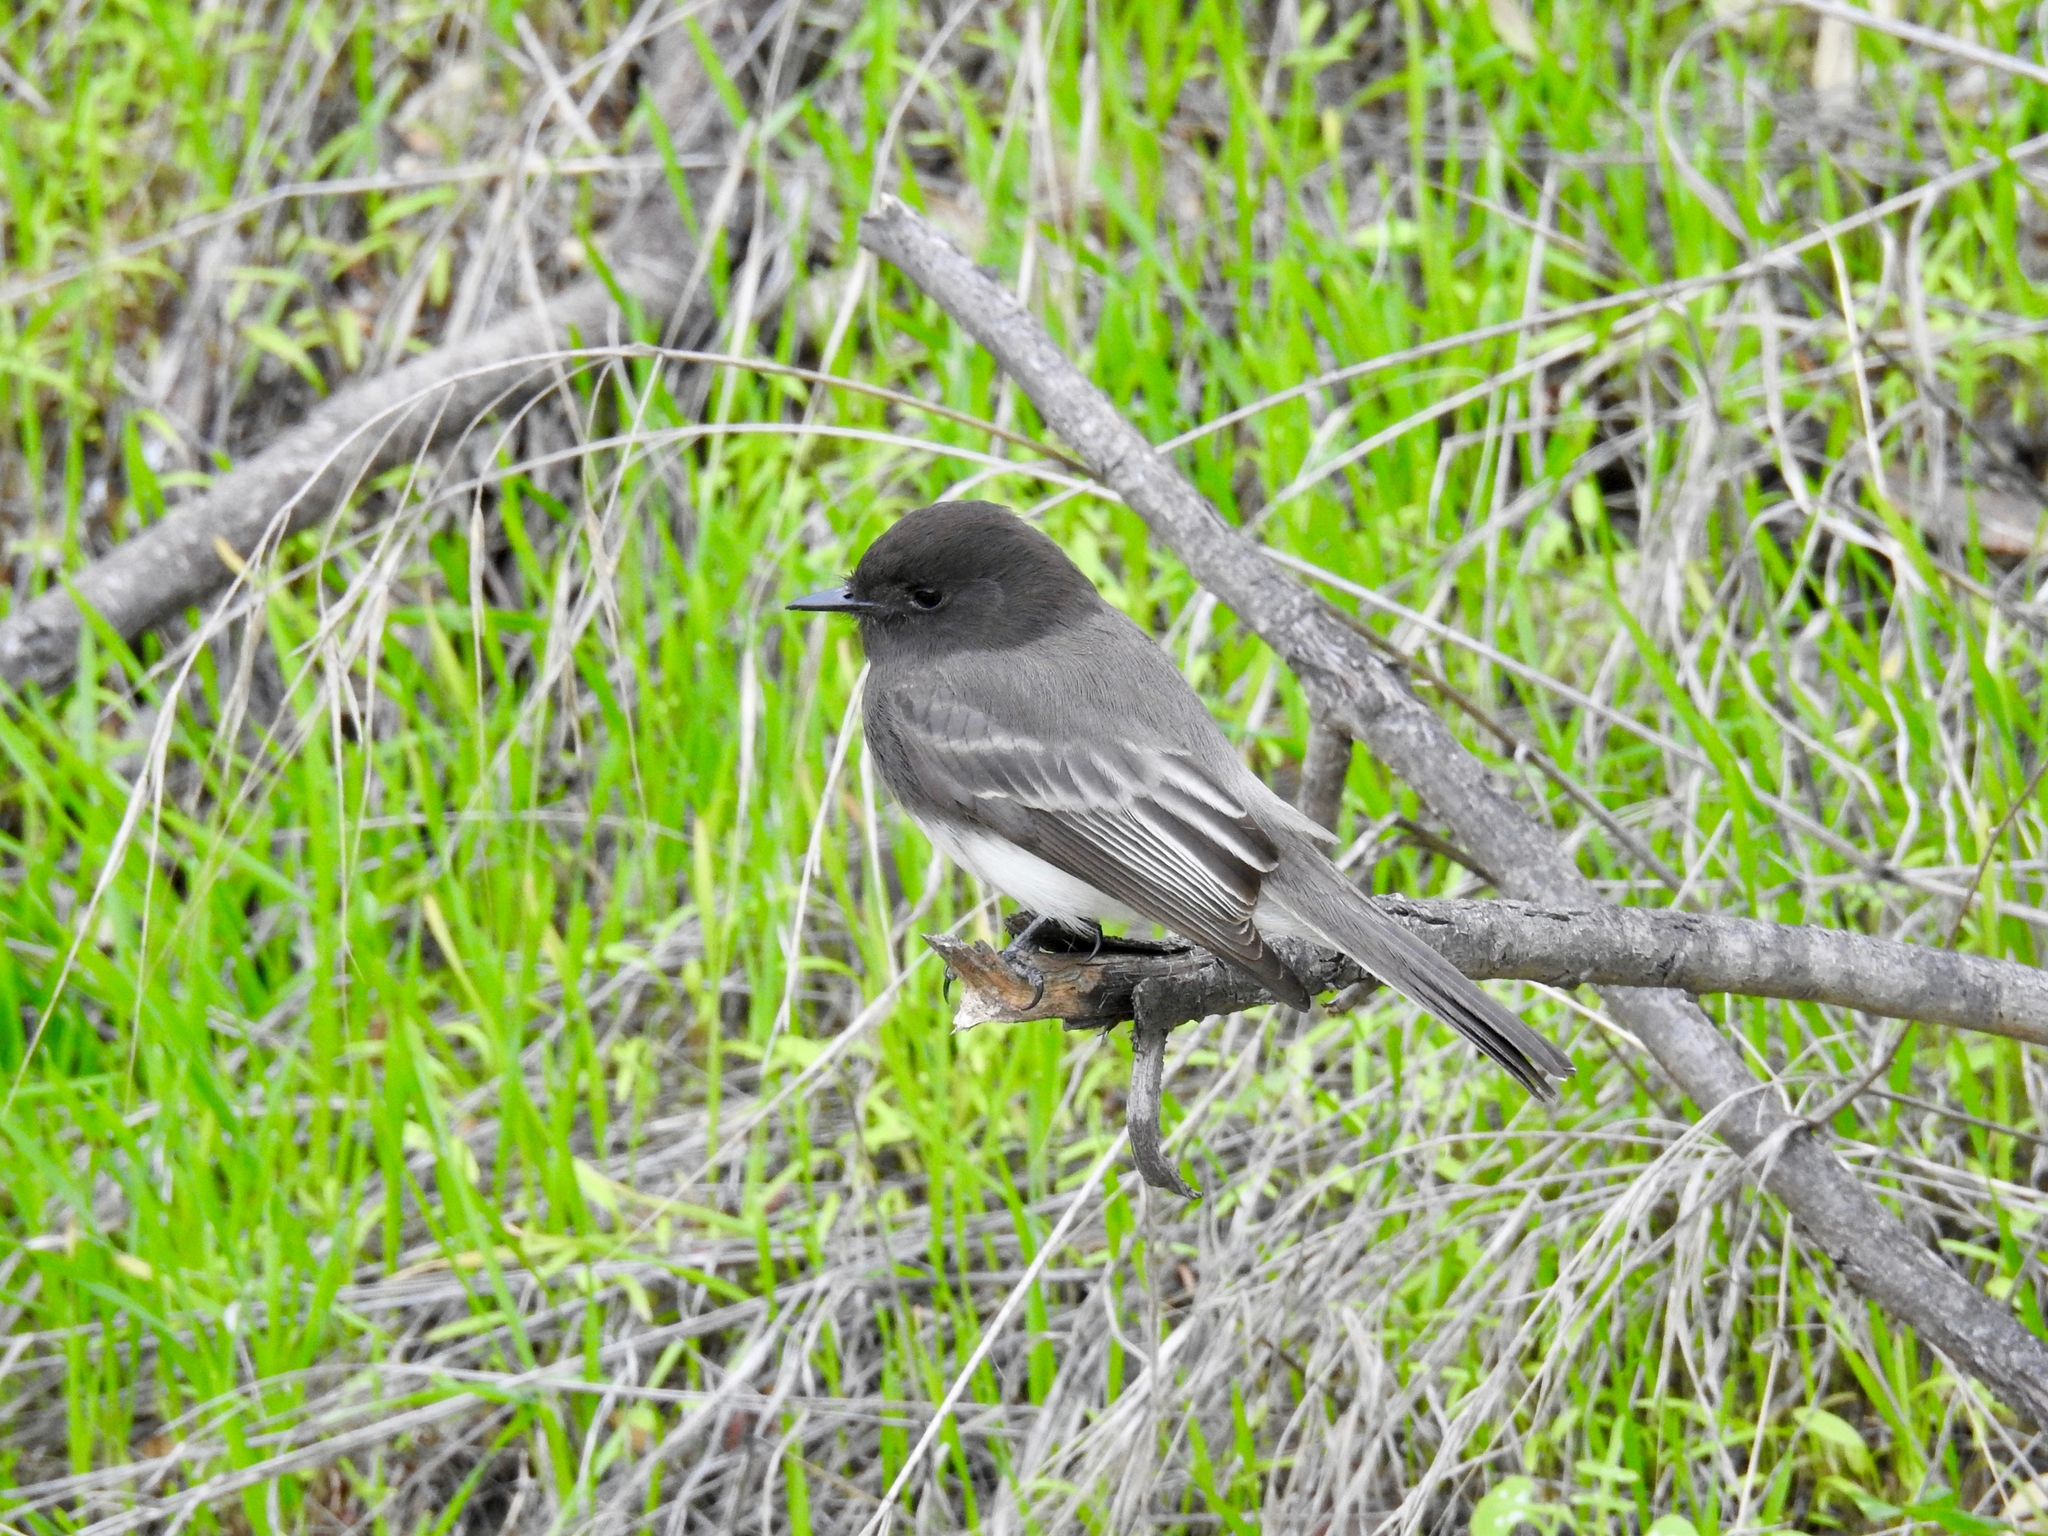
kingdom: Animalia
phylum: Chordata
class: Aves
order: Passeriformes
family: Tyrannidae
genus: Sayornis
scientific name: Sayornis nigricans
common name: Black phoebe
